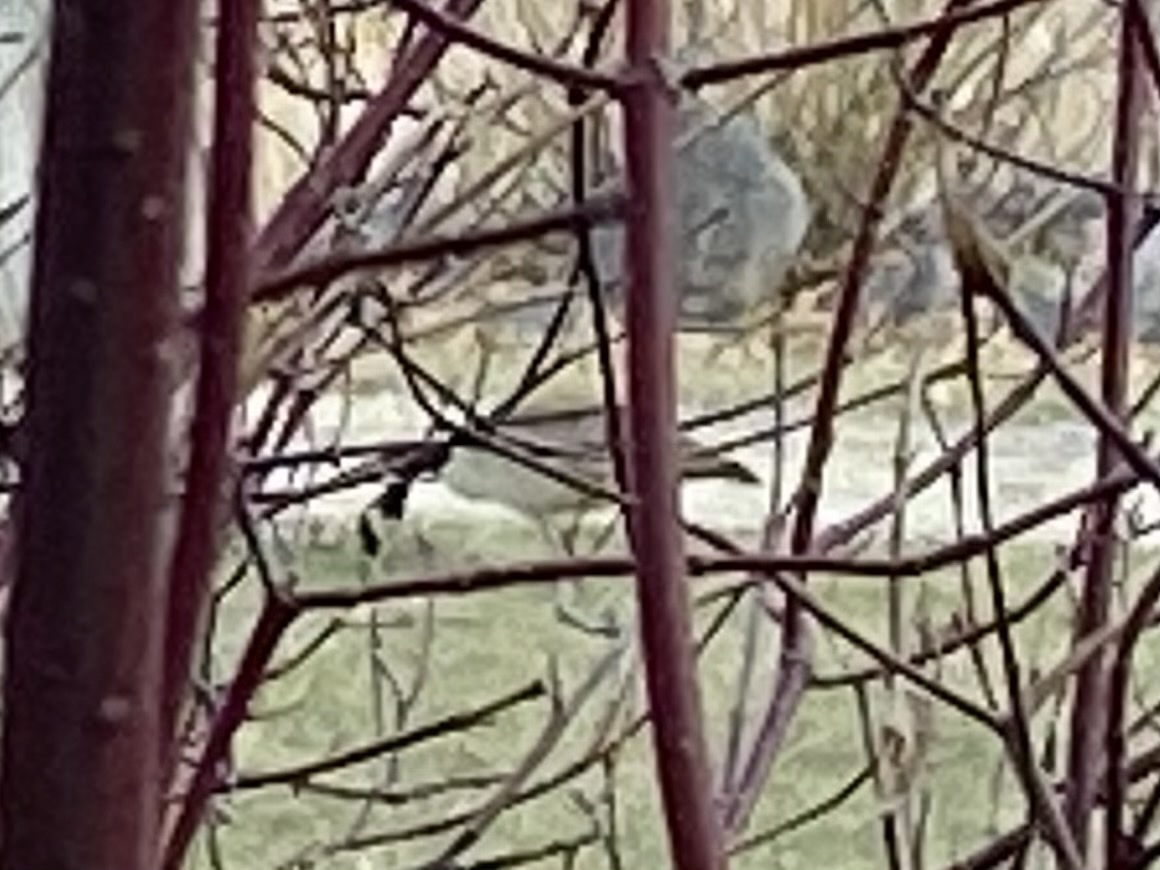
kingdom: Animalia
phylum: Chordata
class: Aves
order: Anseriformes
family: Anatidae
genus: Branta
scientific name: Branta canadensis
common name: Canada goose
